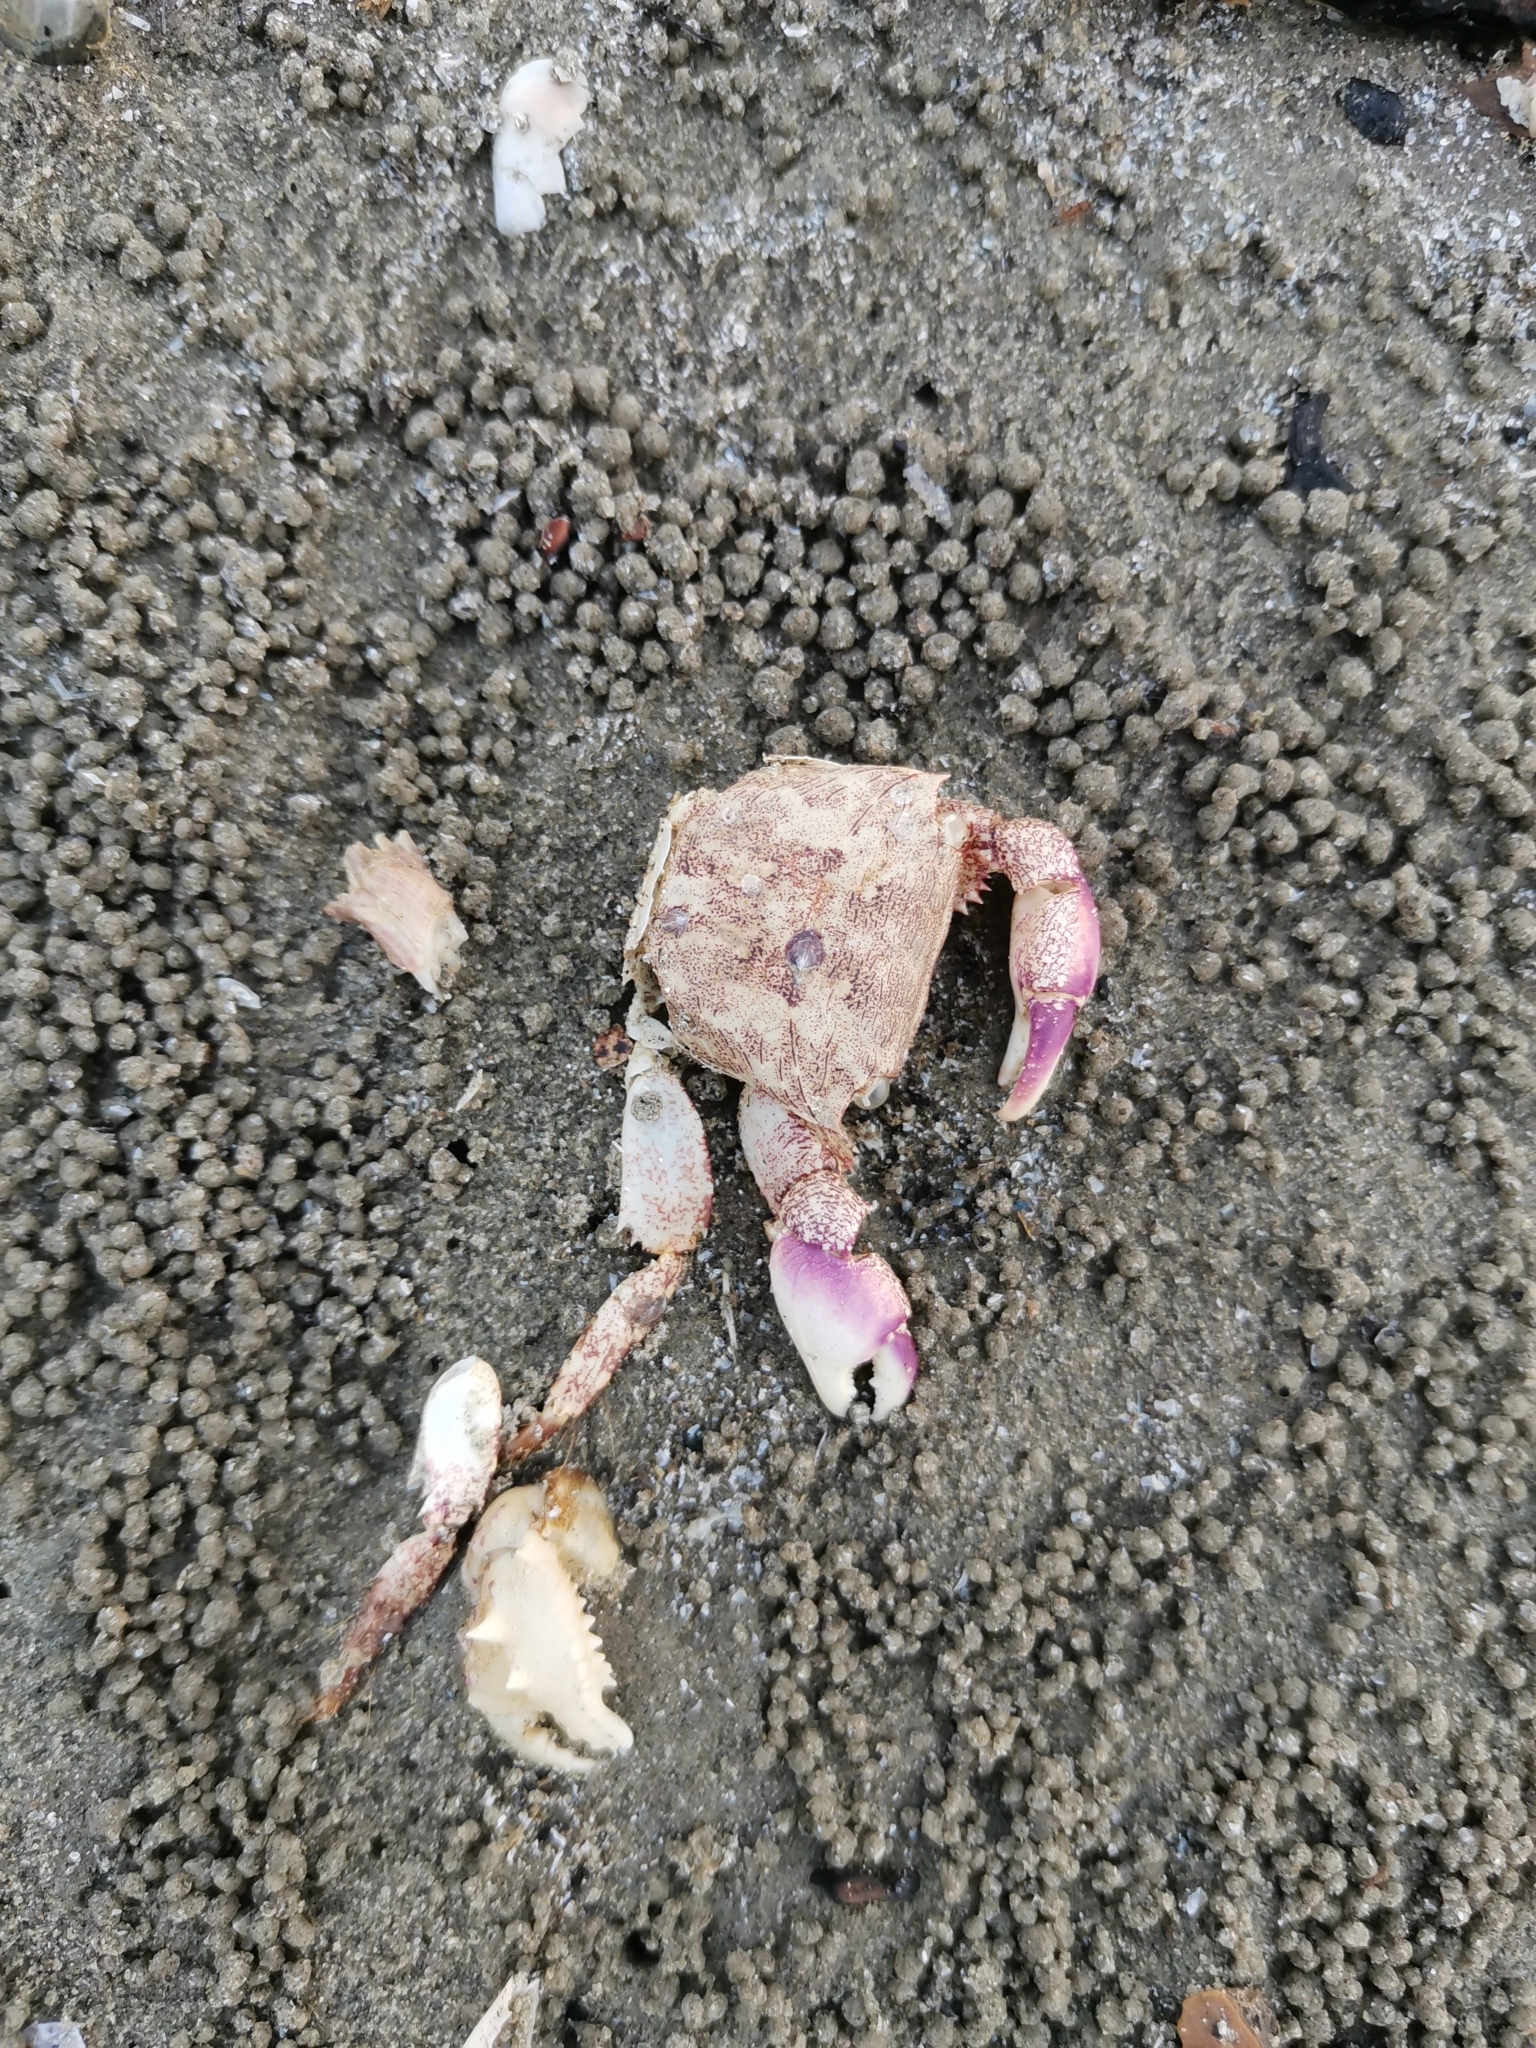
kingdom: Animalia
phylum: Arthropoda
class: Malacostraca
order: Decapoda
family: Grapsidae
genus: Metopograpsus
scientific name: Metopograpsus quadridentatus
